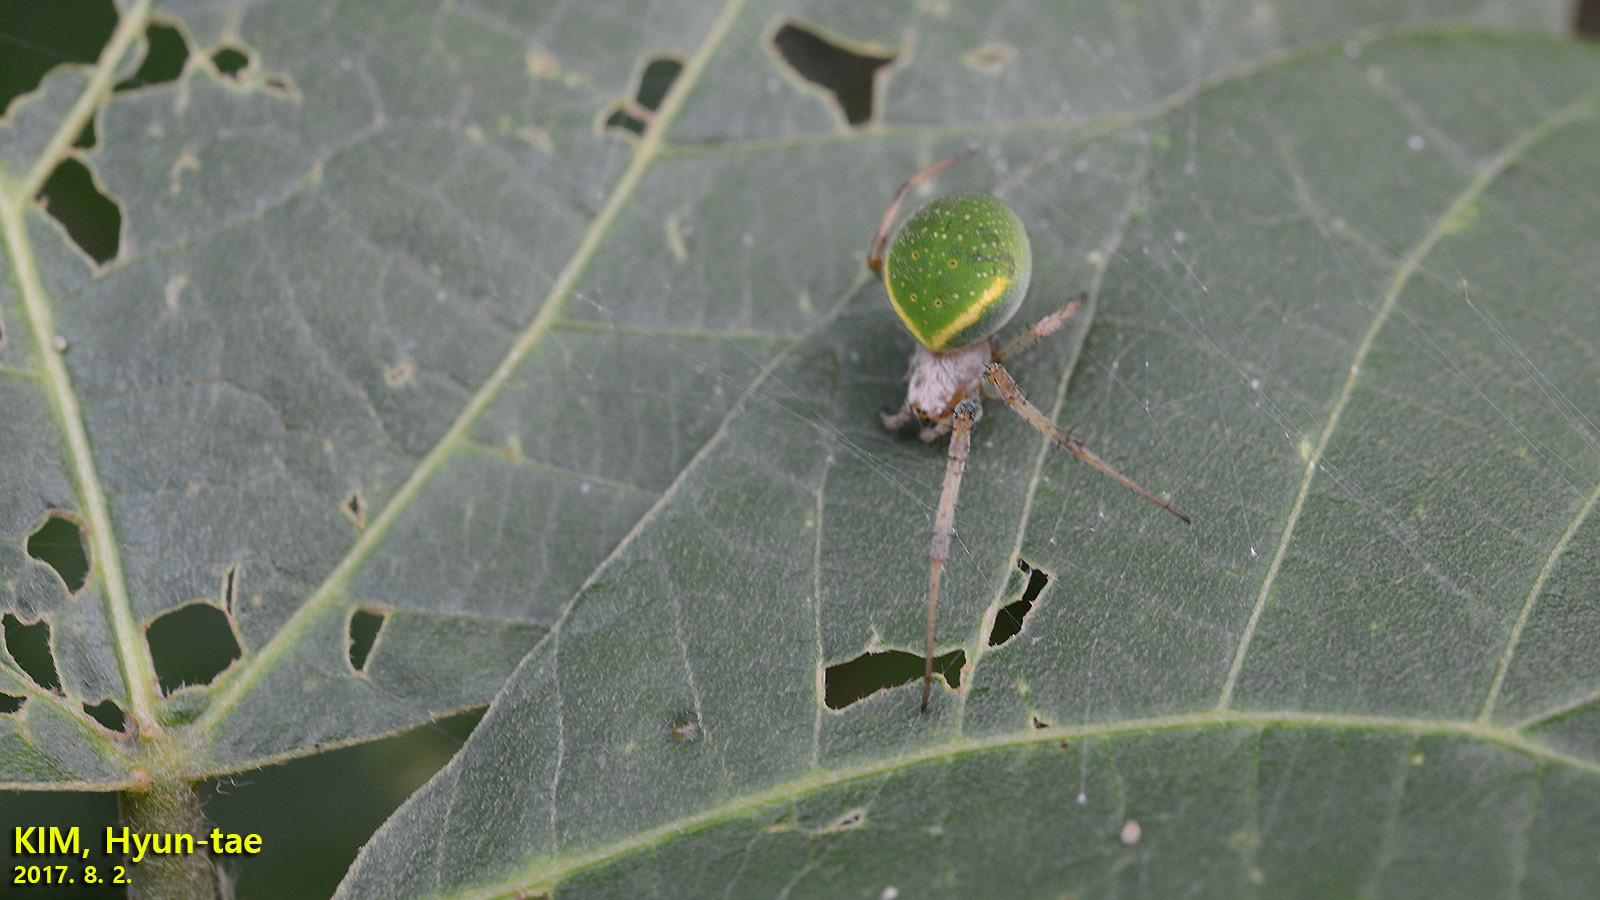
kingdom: Animalia
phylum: Arthropoda
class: Arachnida
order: Araneae
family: Araneidae
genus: Neoscona
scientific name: Neoscona scylloides
